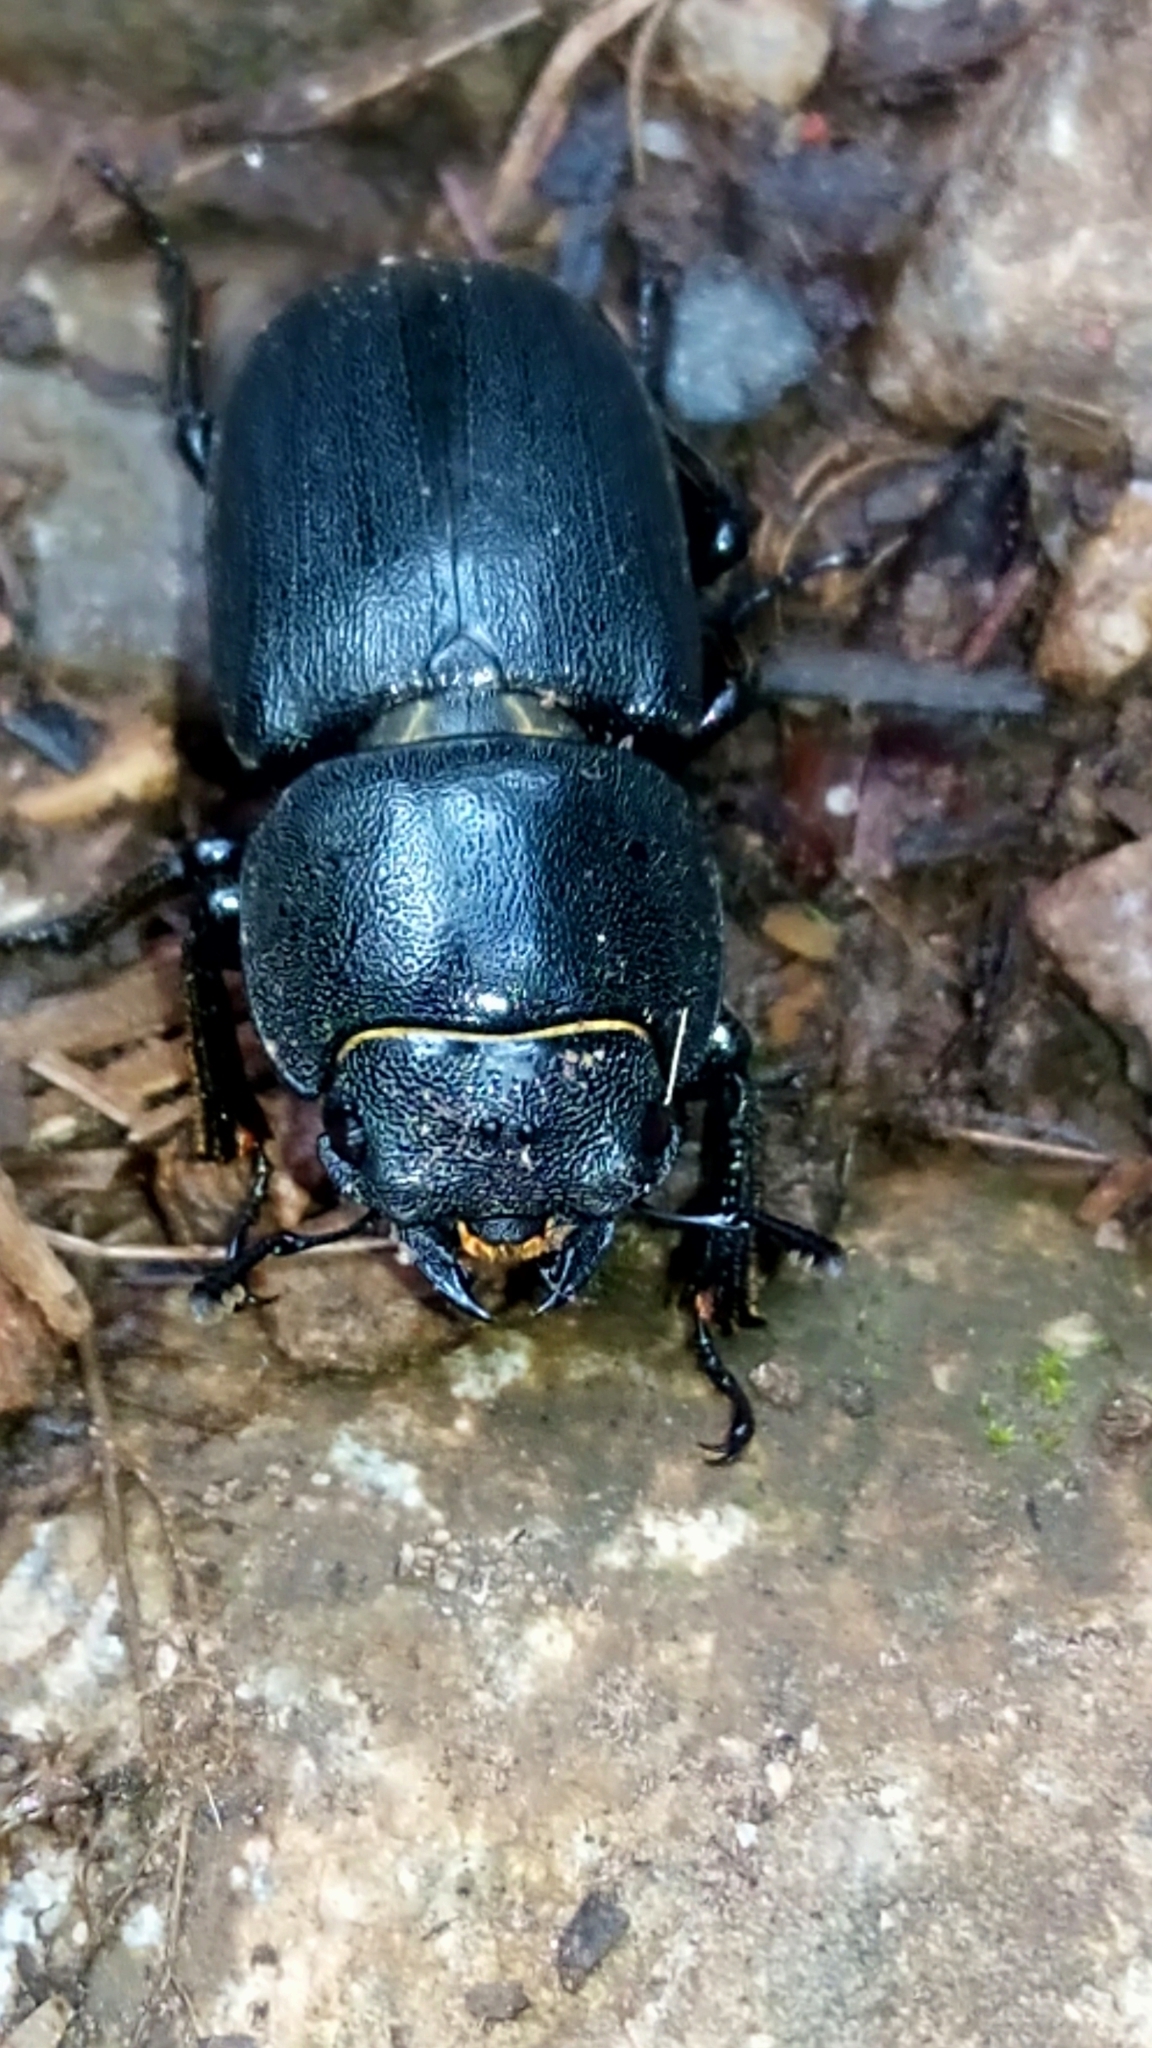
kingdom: Animalia
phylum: Arthropoda
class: Insecta
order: Coleoptera
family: Lucanidae
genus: Dorcus
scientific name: Dorcus parallelipipedus
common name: Lesser stag beetle
